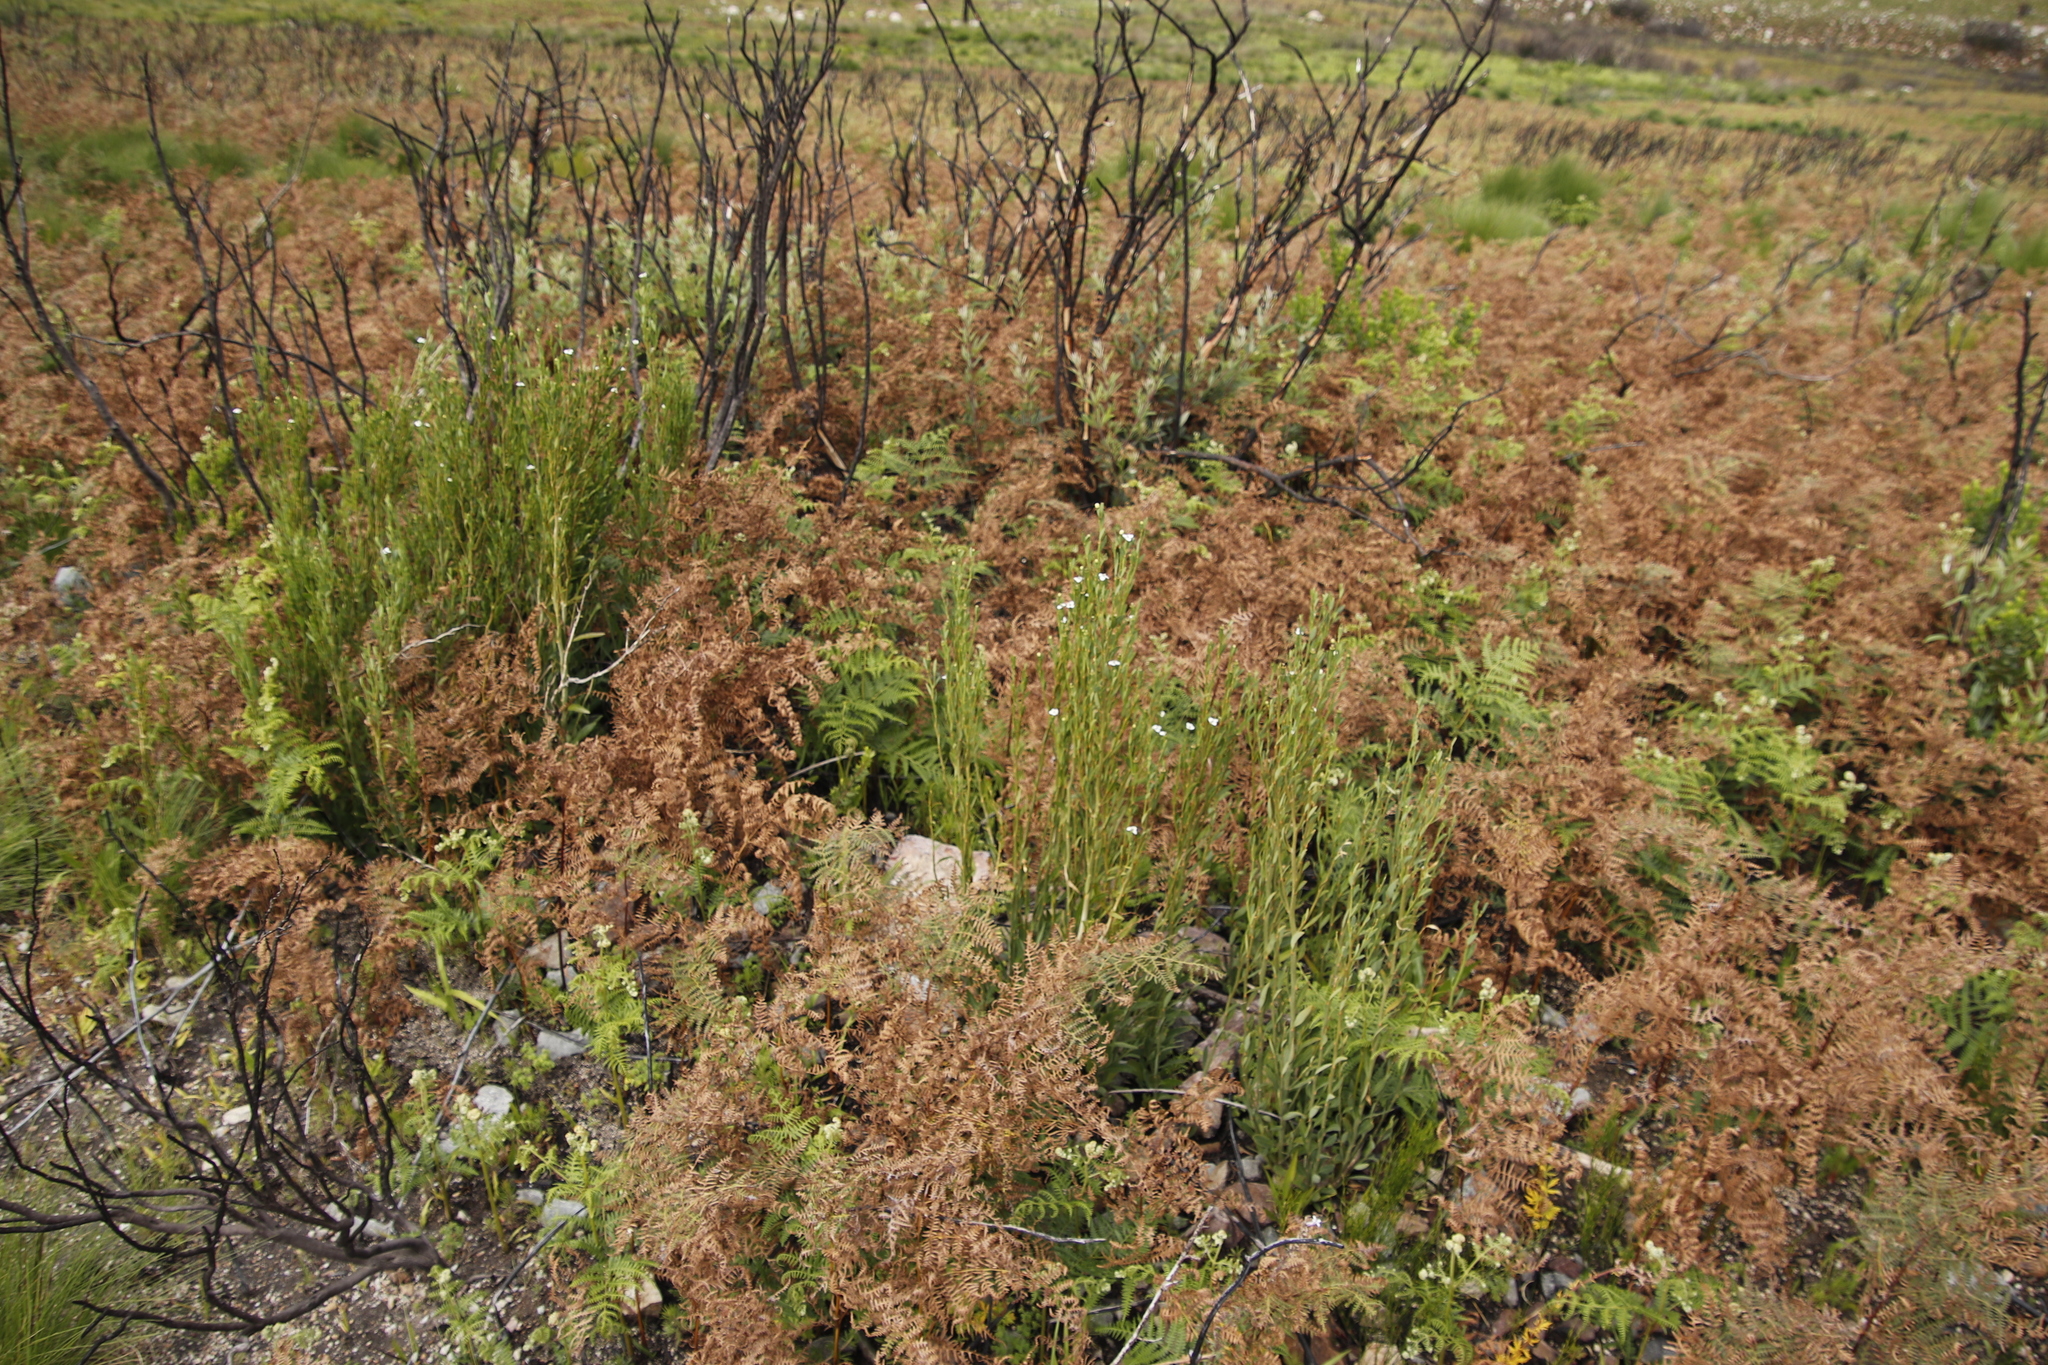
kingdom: Plantae
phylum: Tracheophyta
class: Polypodiopsida
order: Polypodiales
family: Dennstaedtiaceae
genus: Pteridium
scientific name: Pteridium aquilinum
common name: Bracken
